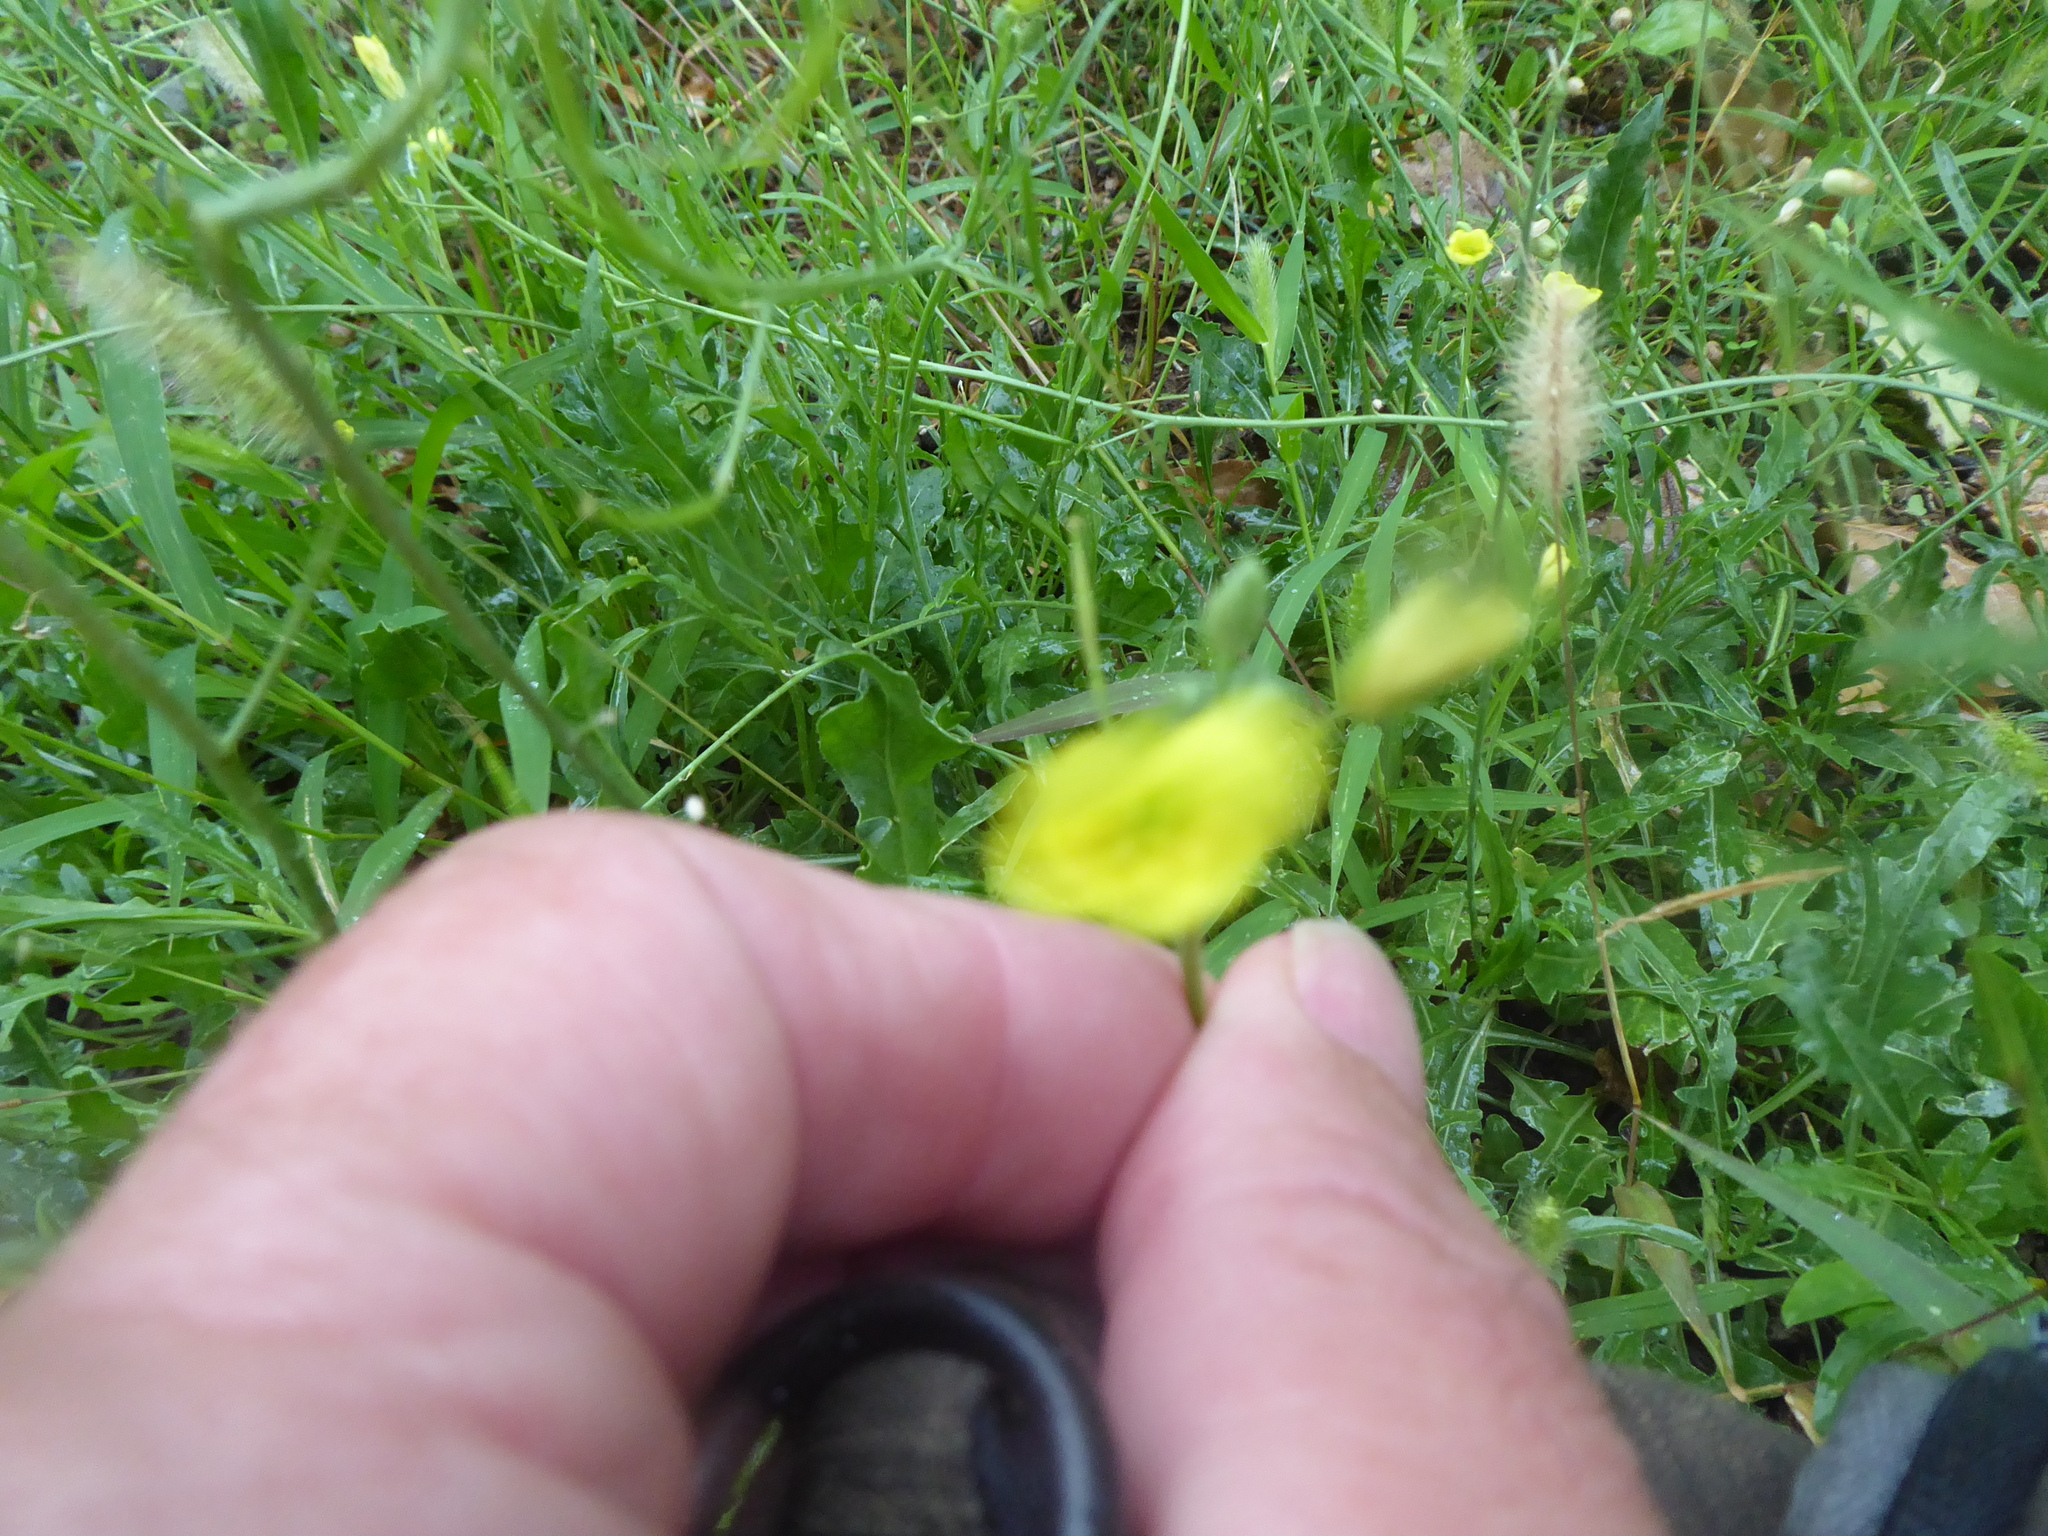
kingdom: Plantae
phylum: Tracheophyta
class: Magnoliopsida
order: Brassicales
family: Brassicaceae
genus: Diplotaxis
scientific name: Diplotaxis tenuifolia
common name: Perennial wall-rocket
